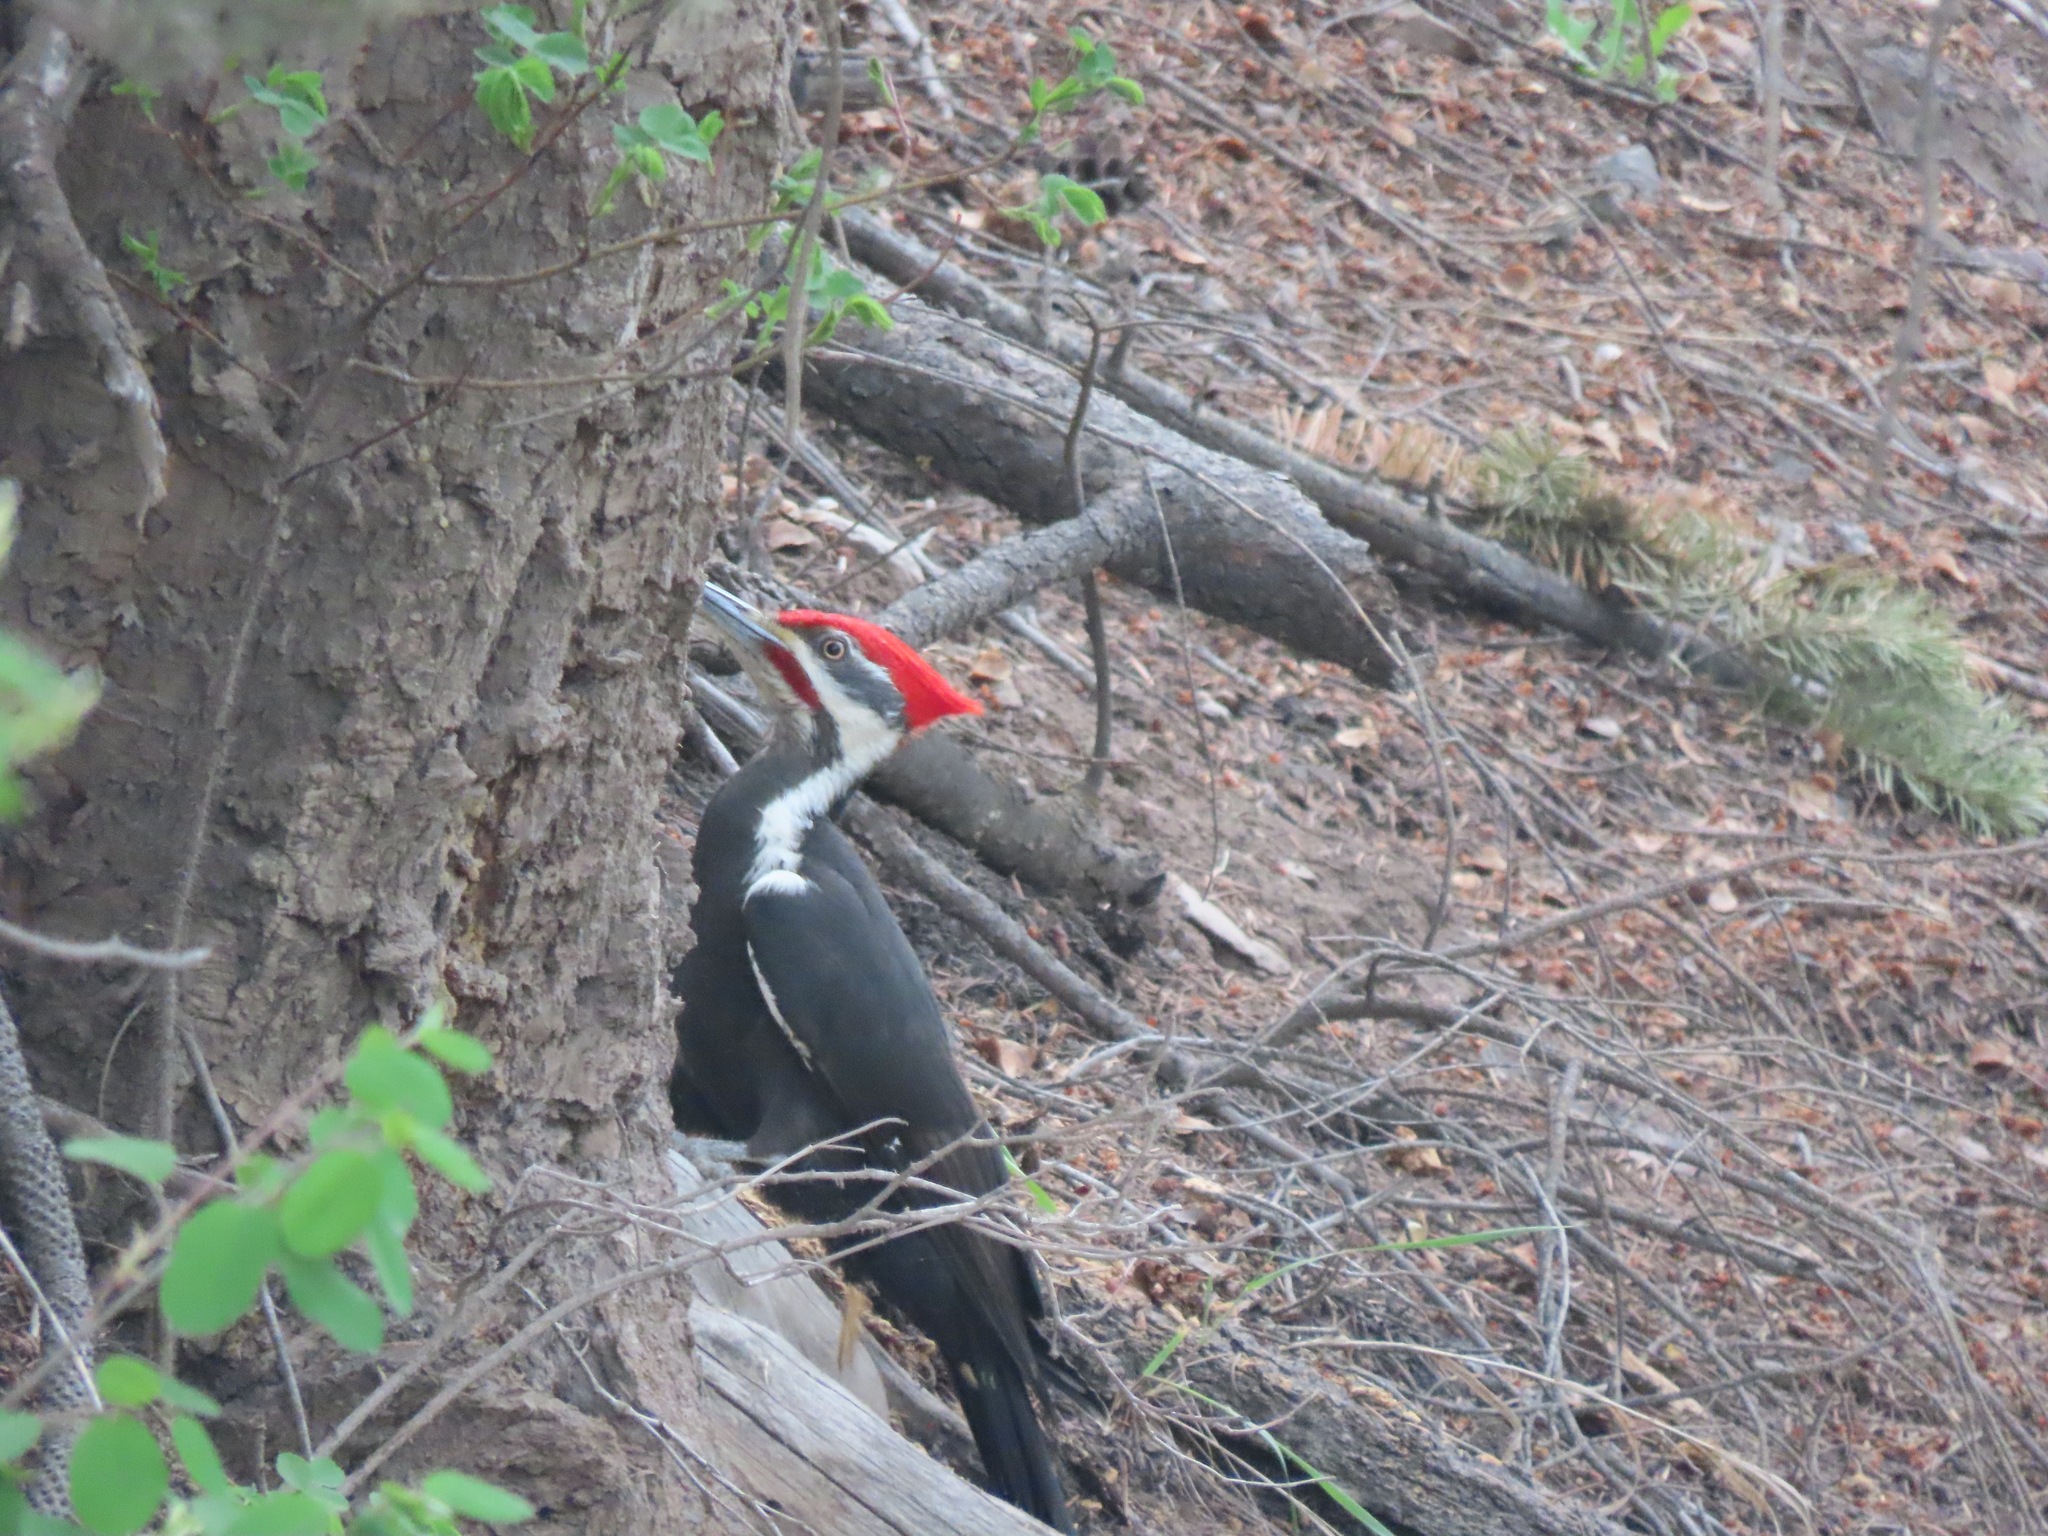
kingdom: Animalia
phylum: Chordata
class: Aves
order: Piciformes
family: Picidae
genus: Dryocopus
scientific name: Dryocopus pileatus
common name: Pileated woodpecker
